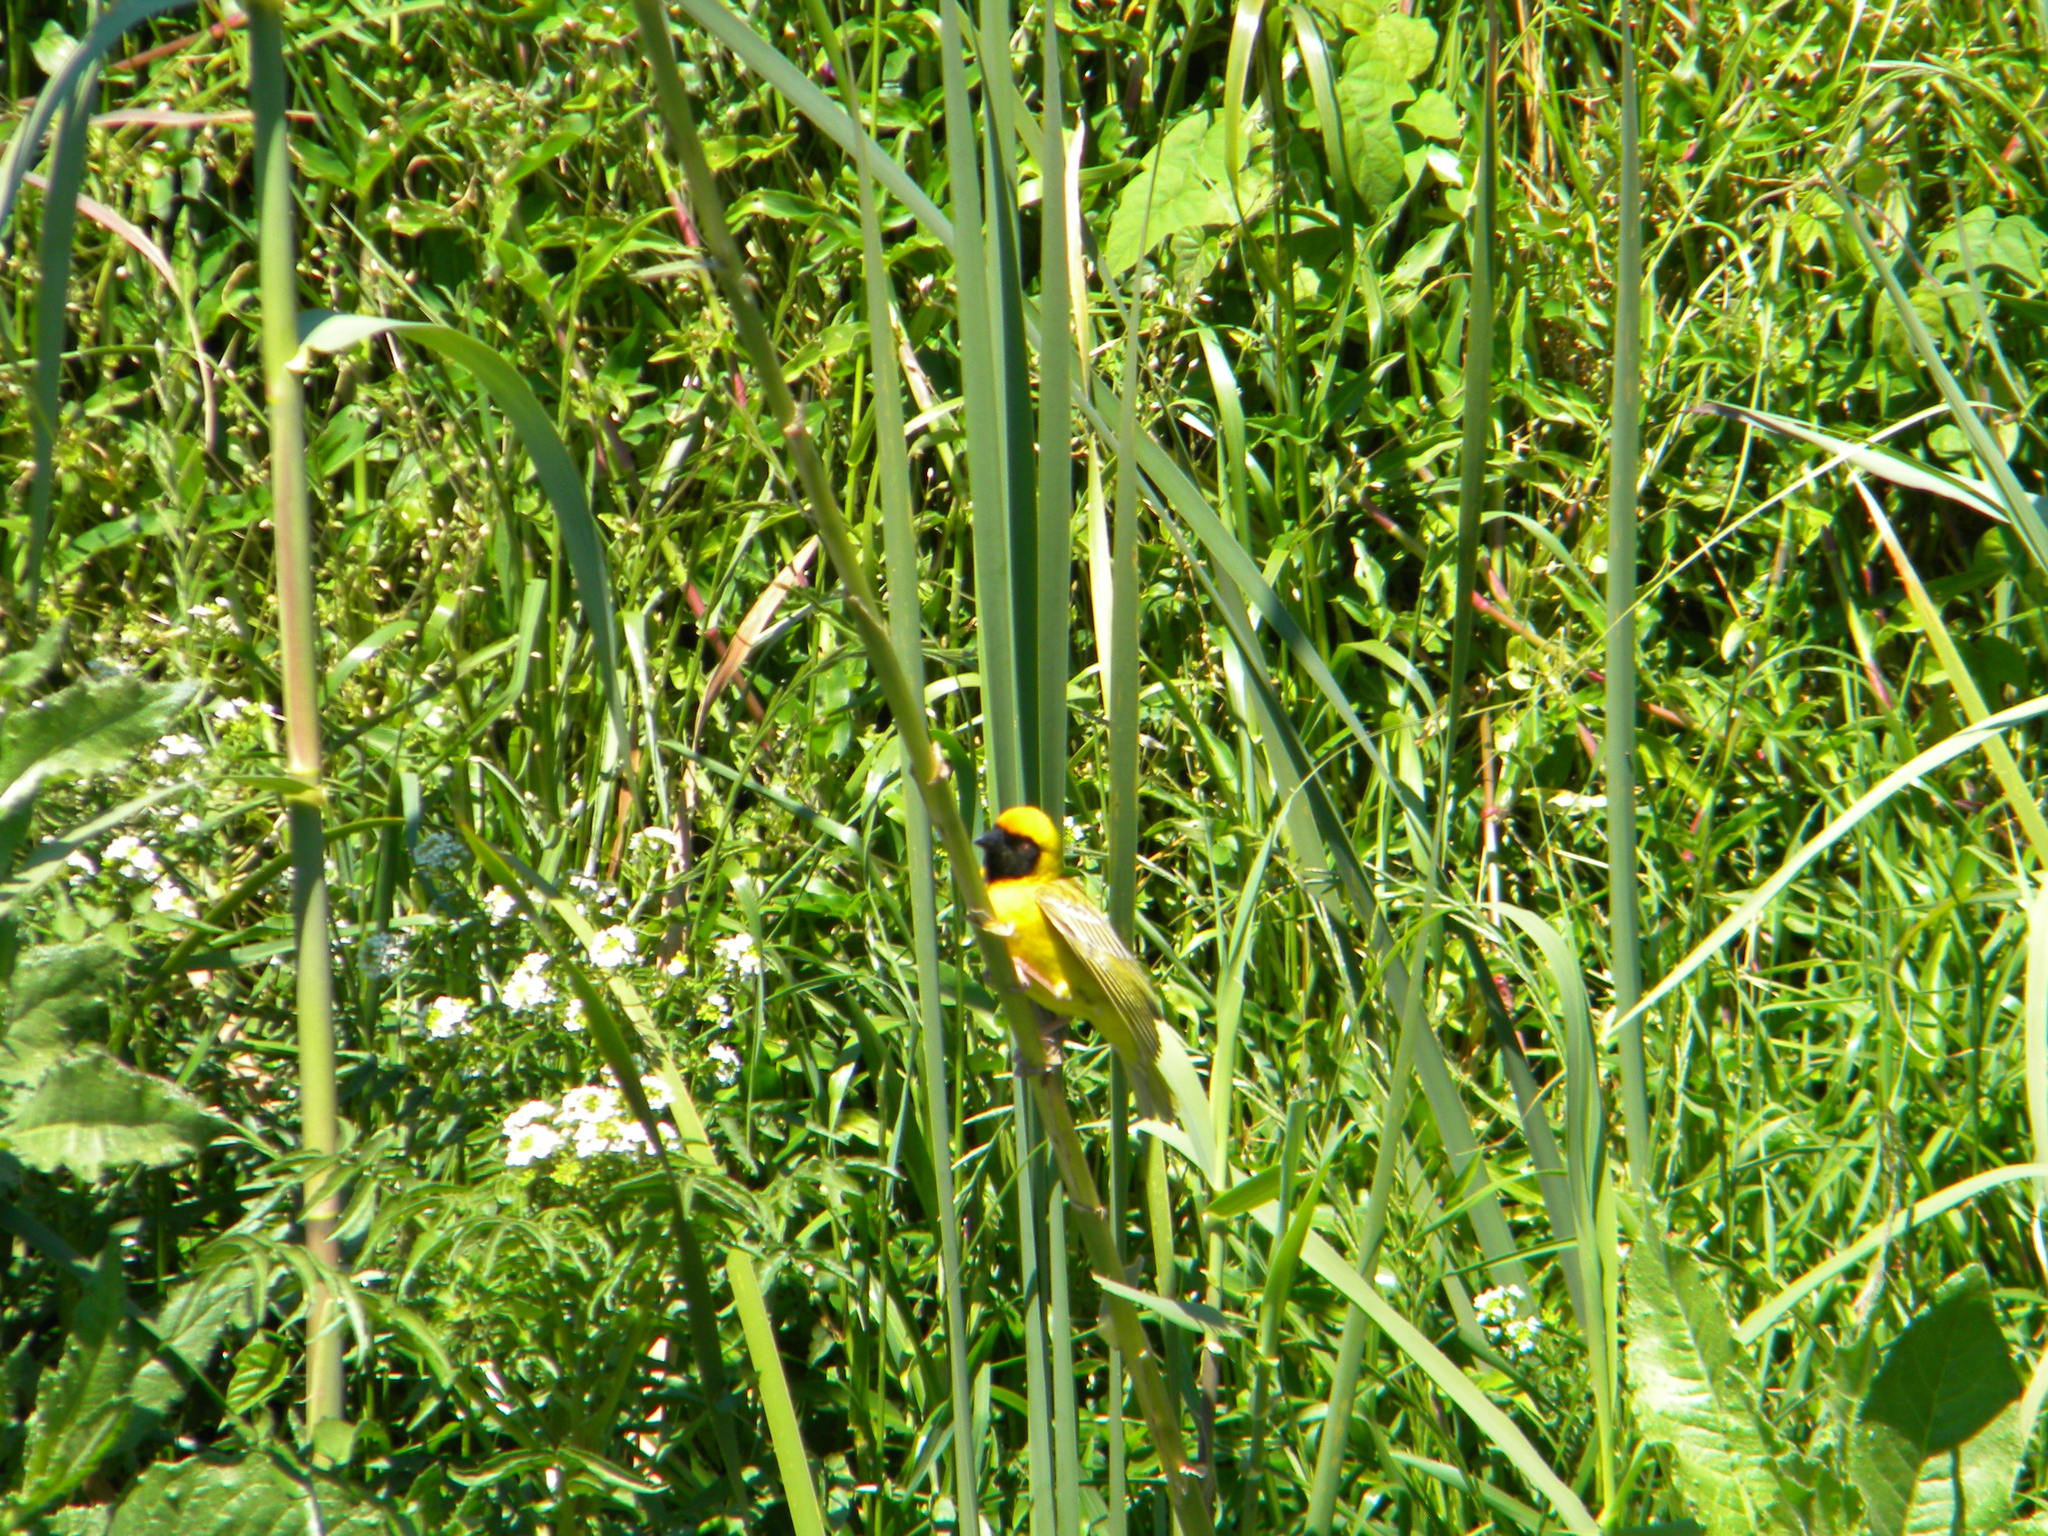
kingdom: Animalia
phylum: Chordata
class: Aves
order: Passeriformes
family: Ploceidae
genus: Ploceus
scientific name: Ploceus velatus
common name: Southern masked weaver
